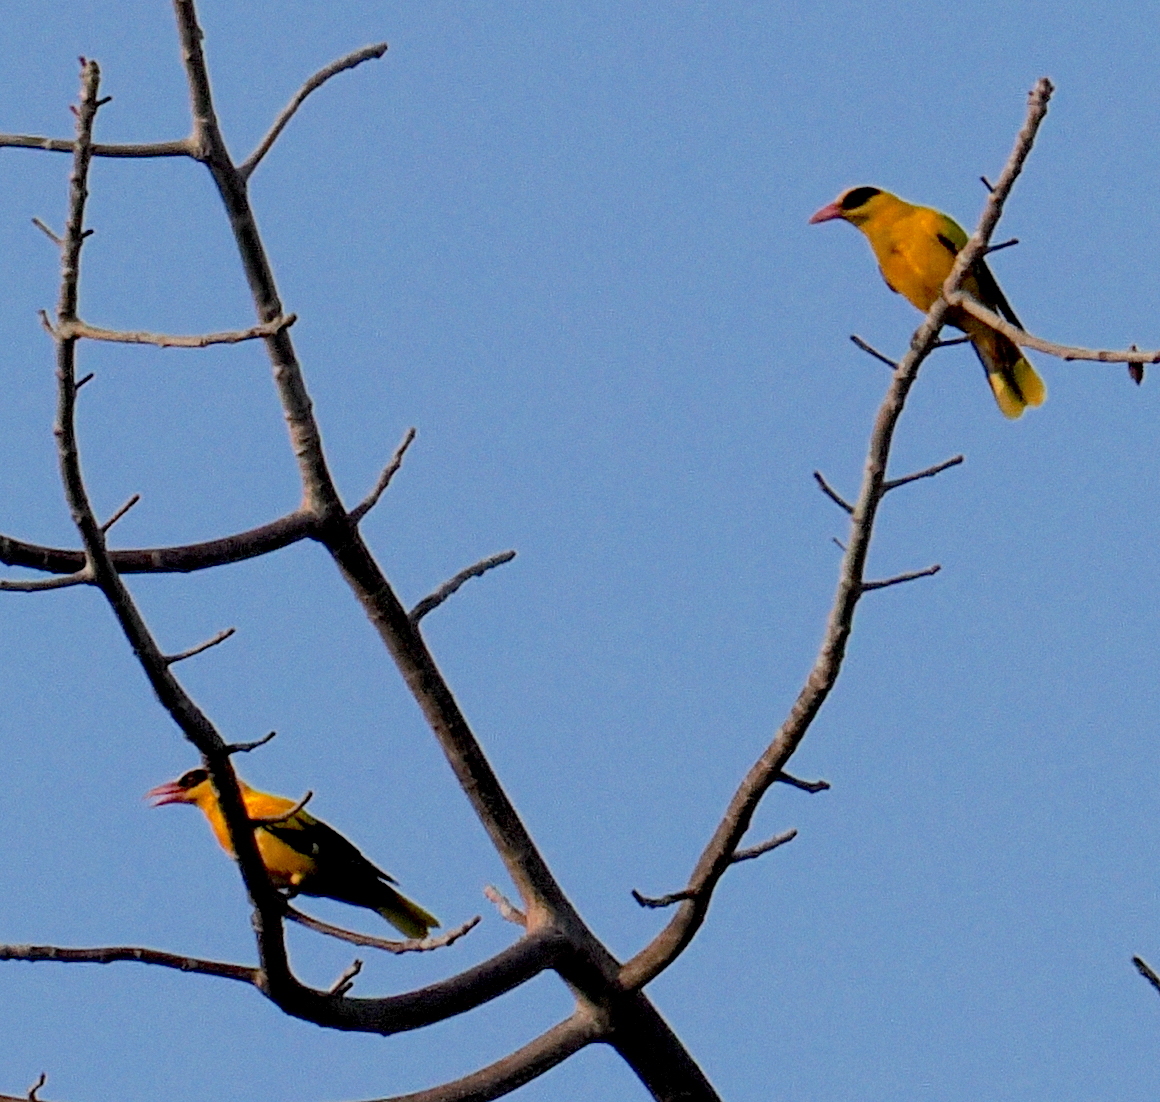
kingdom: Animalia
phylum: Chordata
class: Aves
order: Passeriformes
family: Oriolidae
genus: Oriolus
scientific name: Oriolus chinensis
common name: Black-naped oriole
